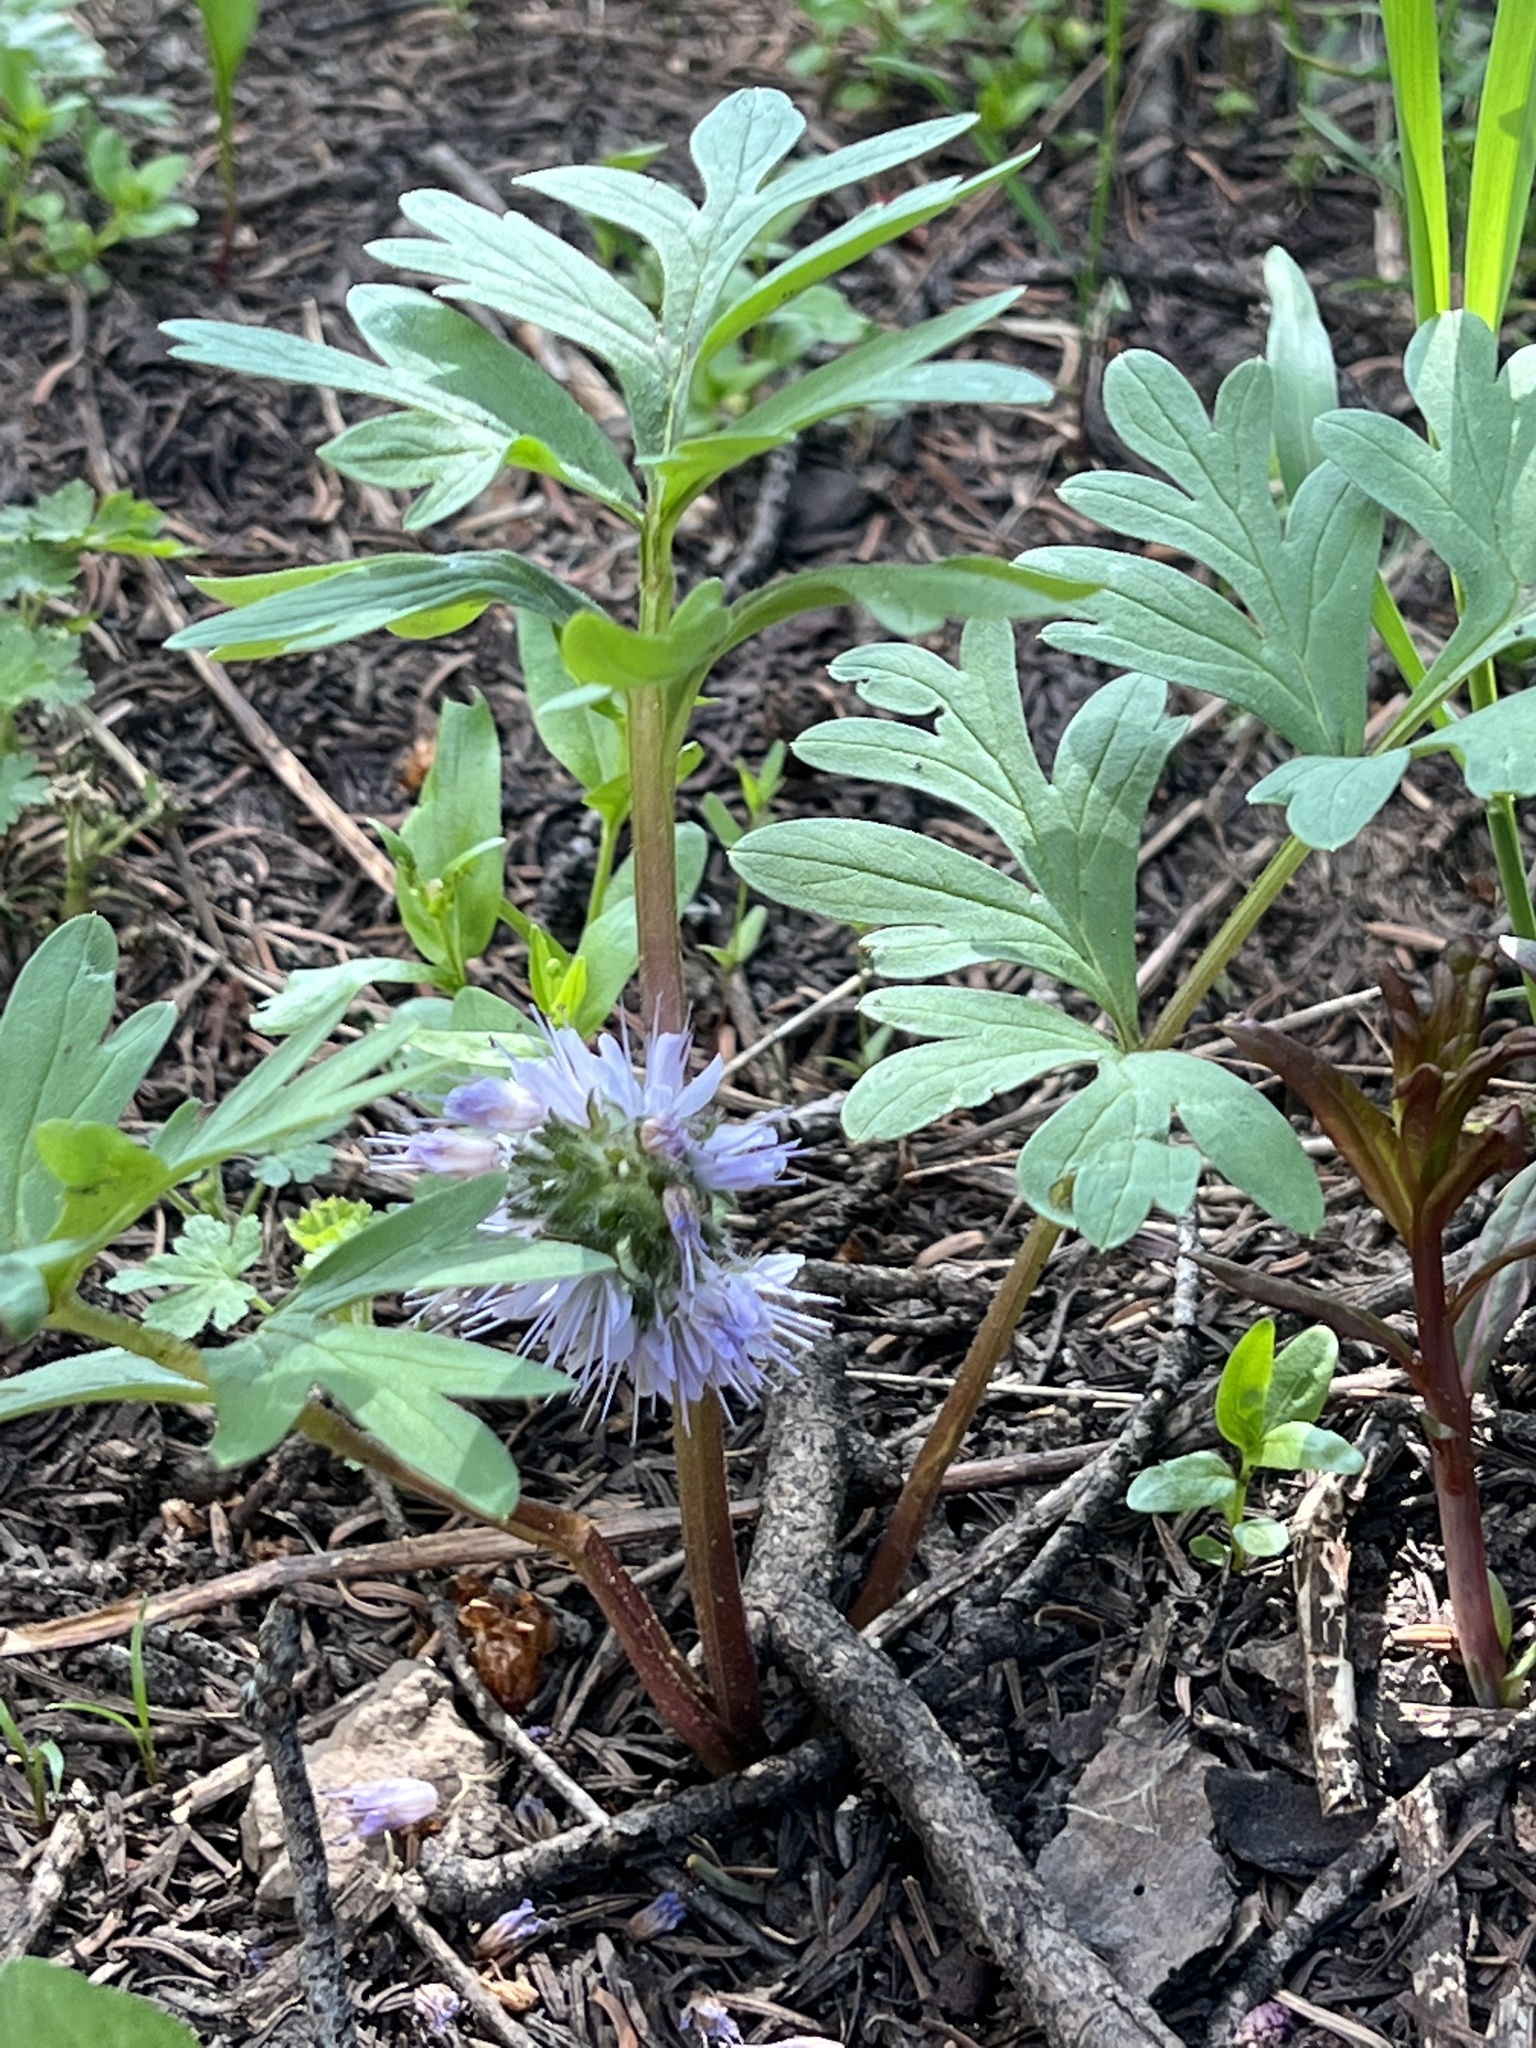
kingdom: Plantae
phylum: Tracheophyta
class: Magnoliopsida
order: Boraginales
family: Hydrophyllaceae
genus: Hydrophyllum
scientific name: Hydrophyllum capitatum
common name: Woollen-breeches
